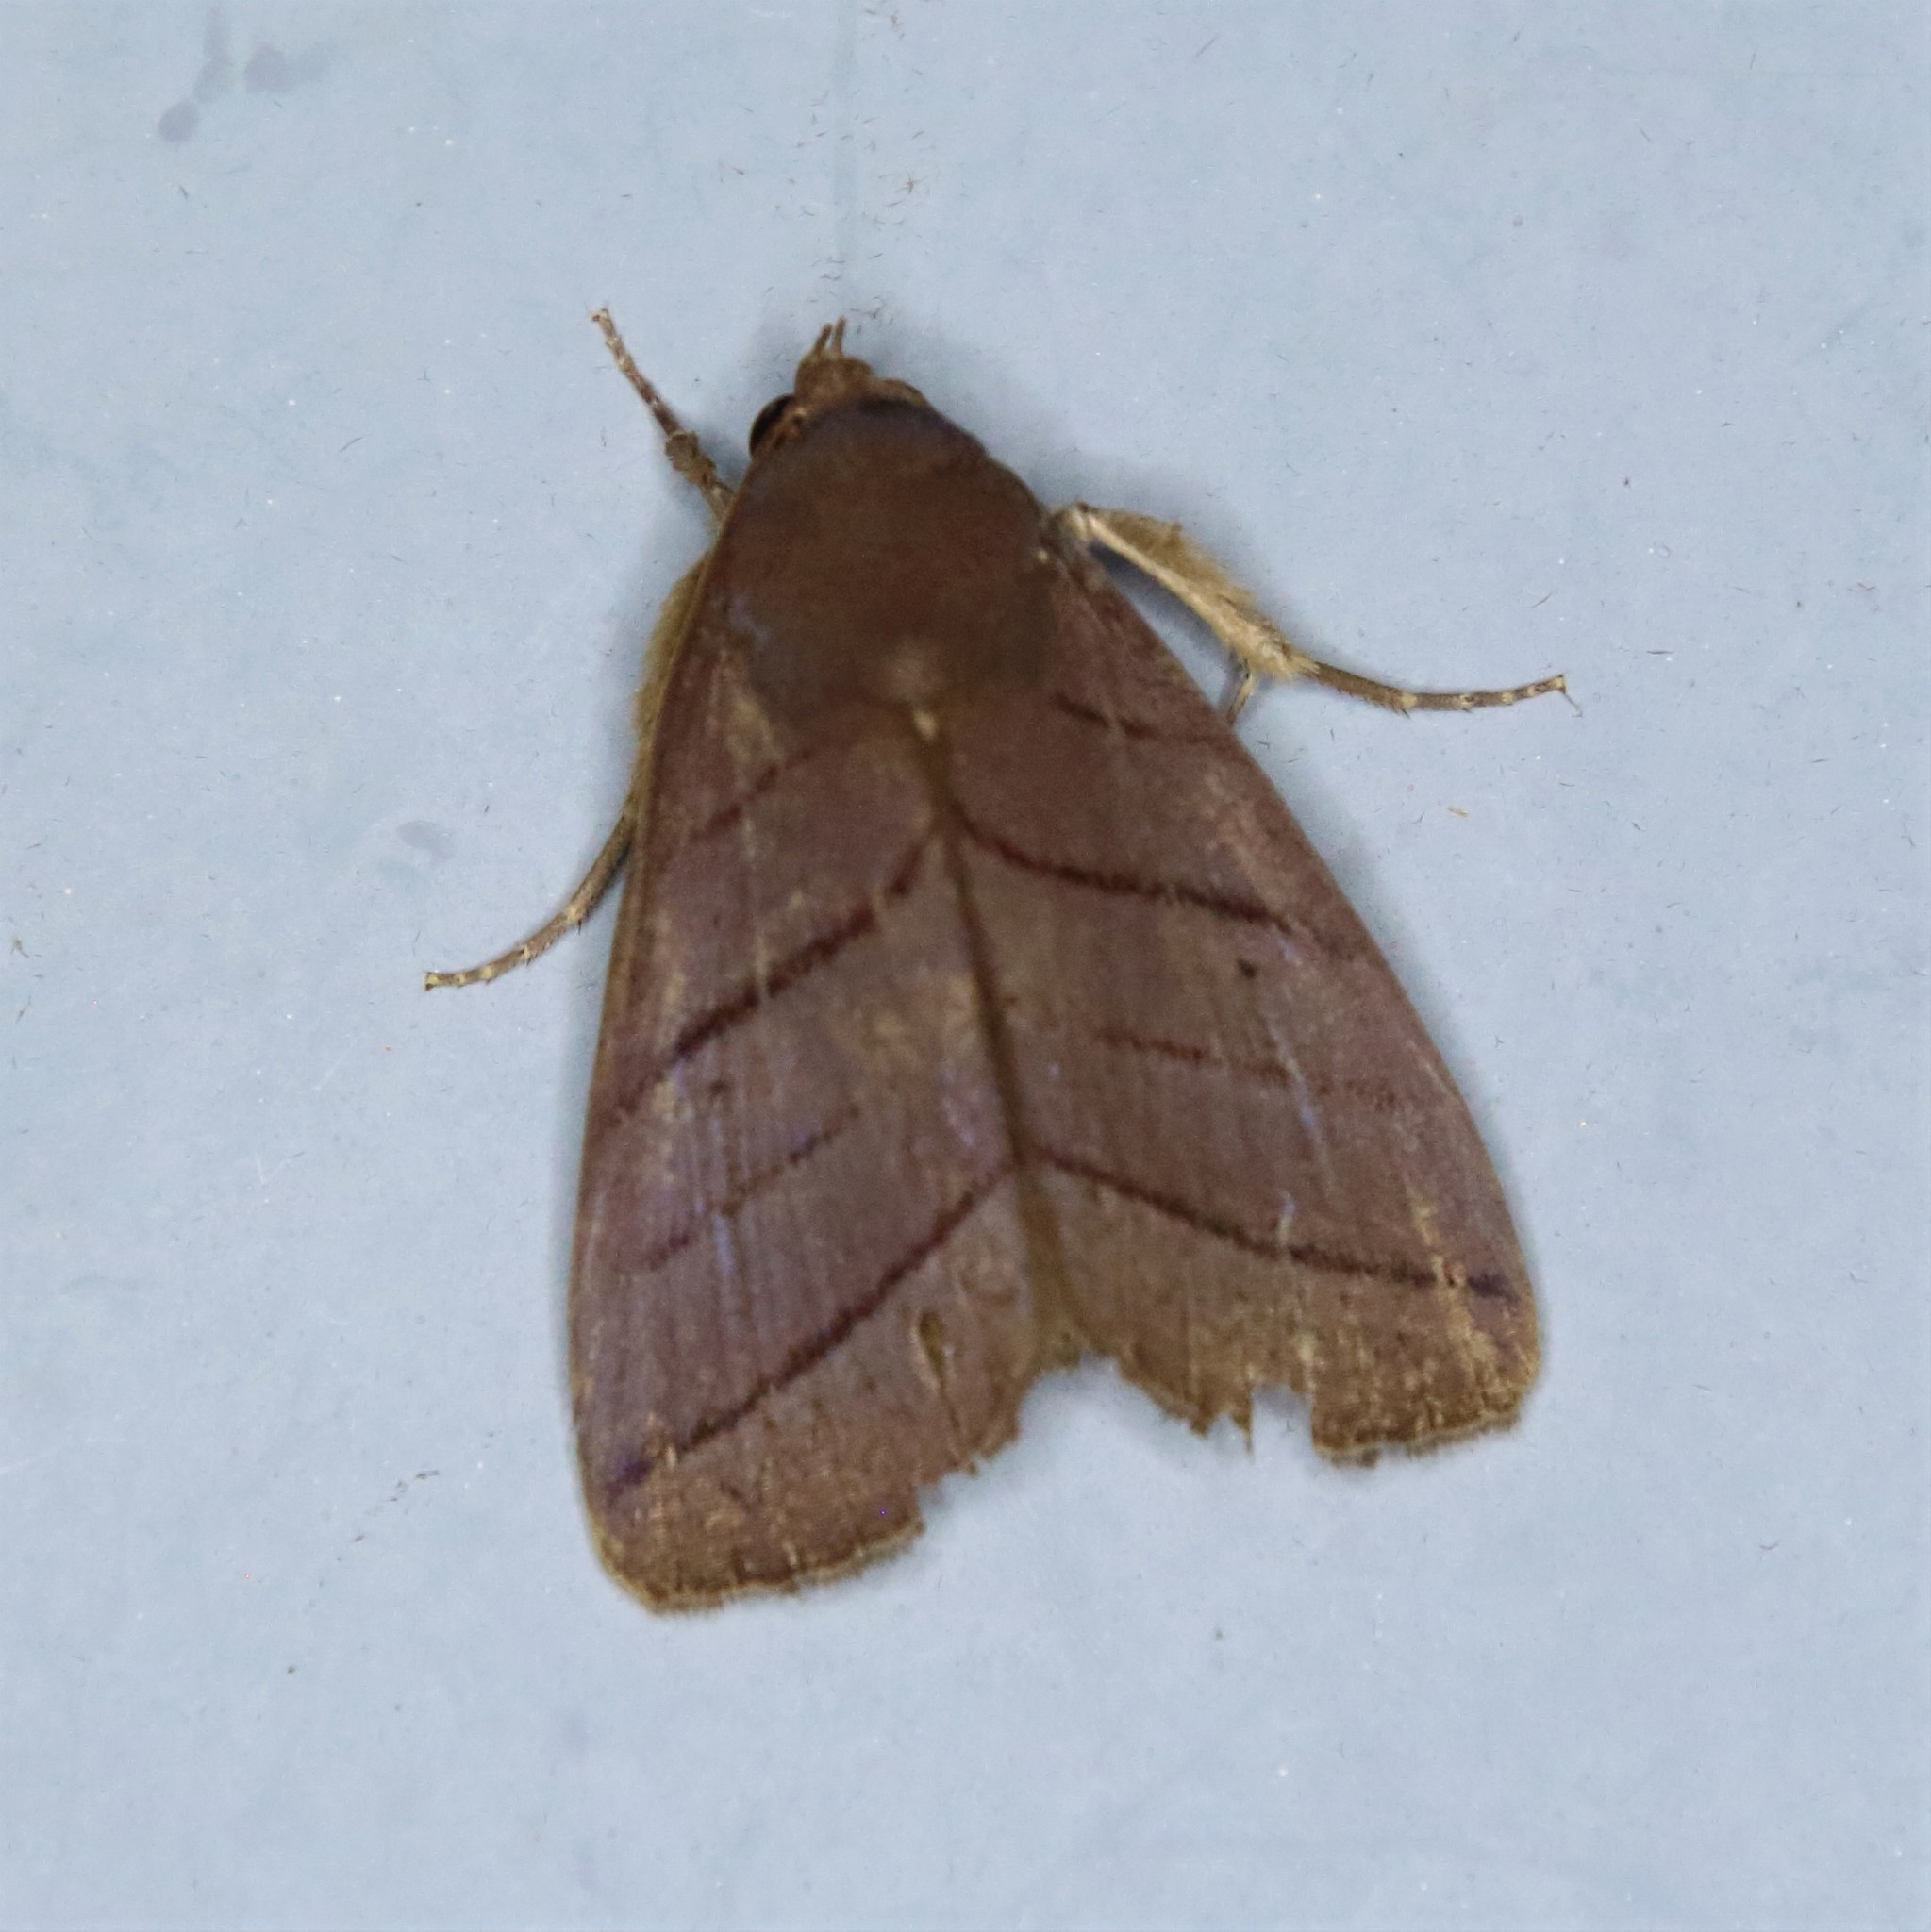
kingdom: Animalia
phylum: Arthropoda
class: Insecta
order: Lepidoptera
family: Erebidae
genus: Asta
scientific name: Asta quadrilinea
